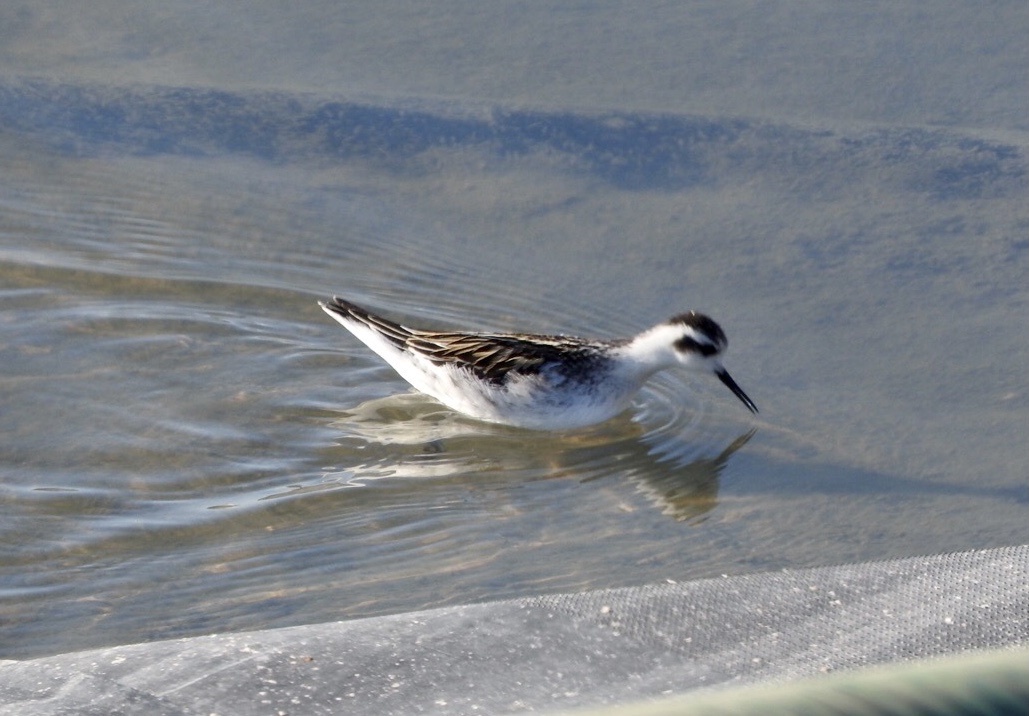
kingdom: Animalia
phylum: Chordata
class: Aves
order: Charadriiformes
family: Scolopacidae
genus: Phalaropus
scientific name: Phalaropus lobatus
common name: Red-necked phalarope
